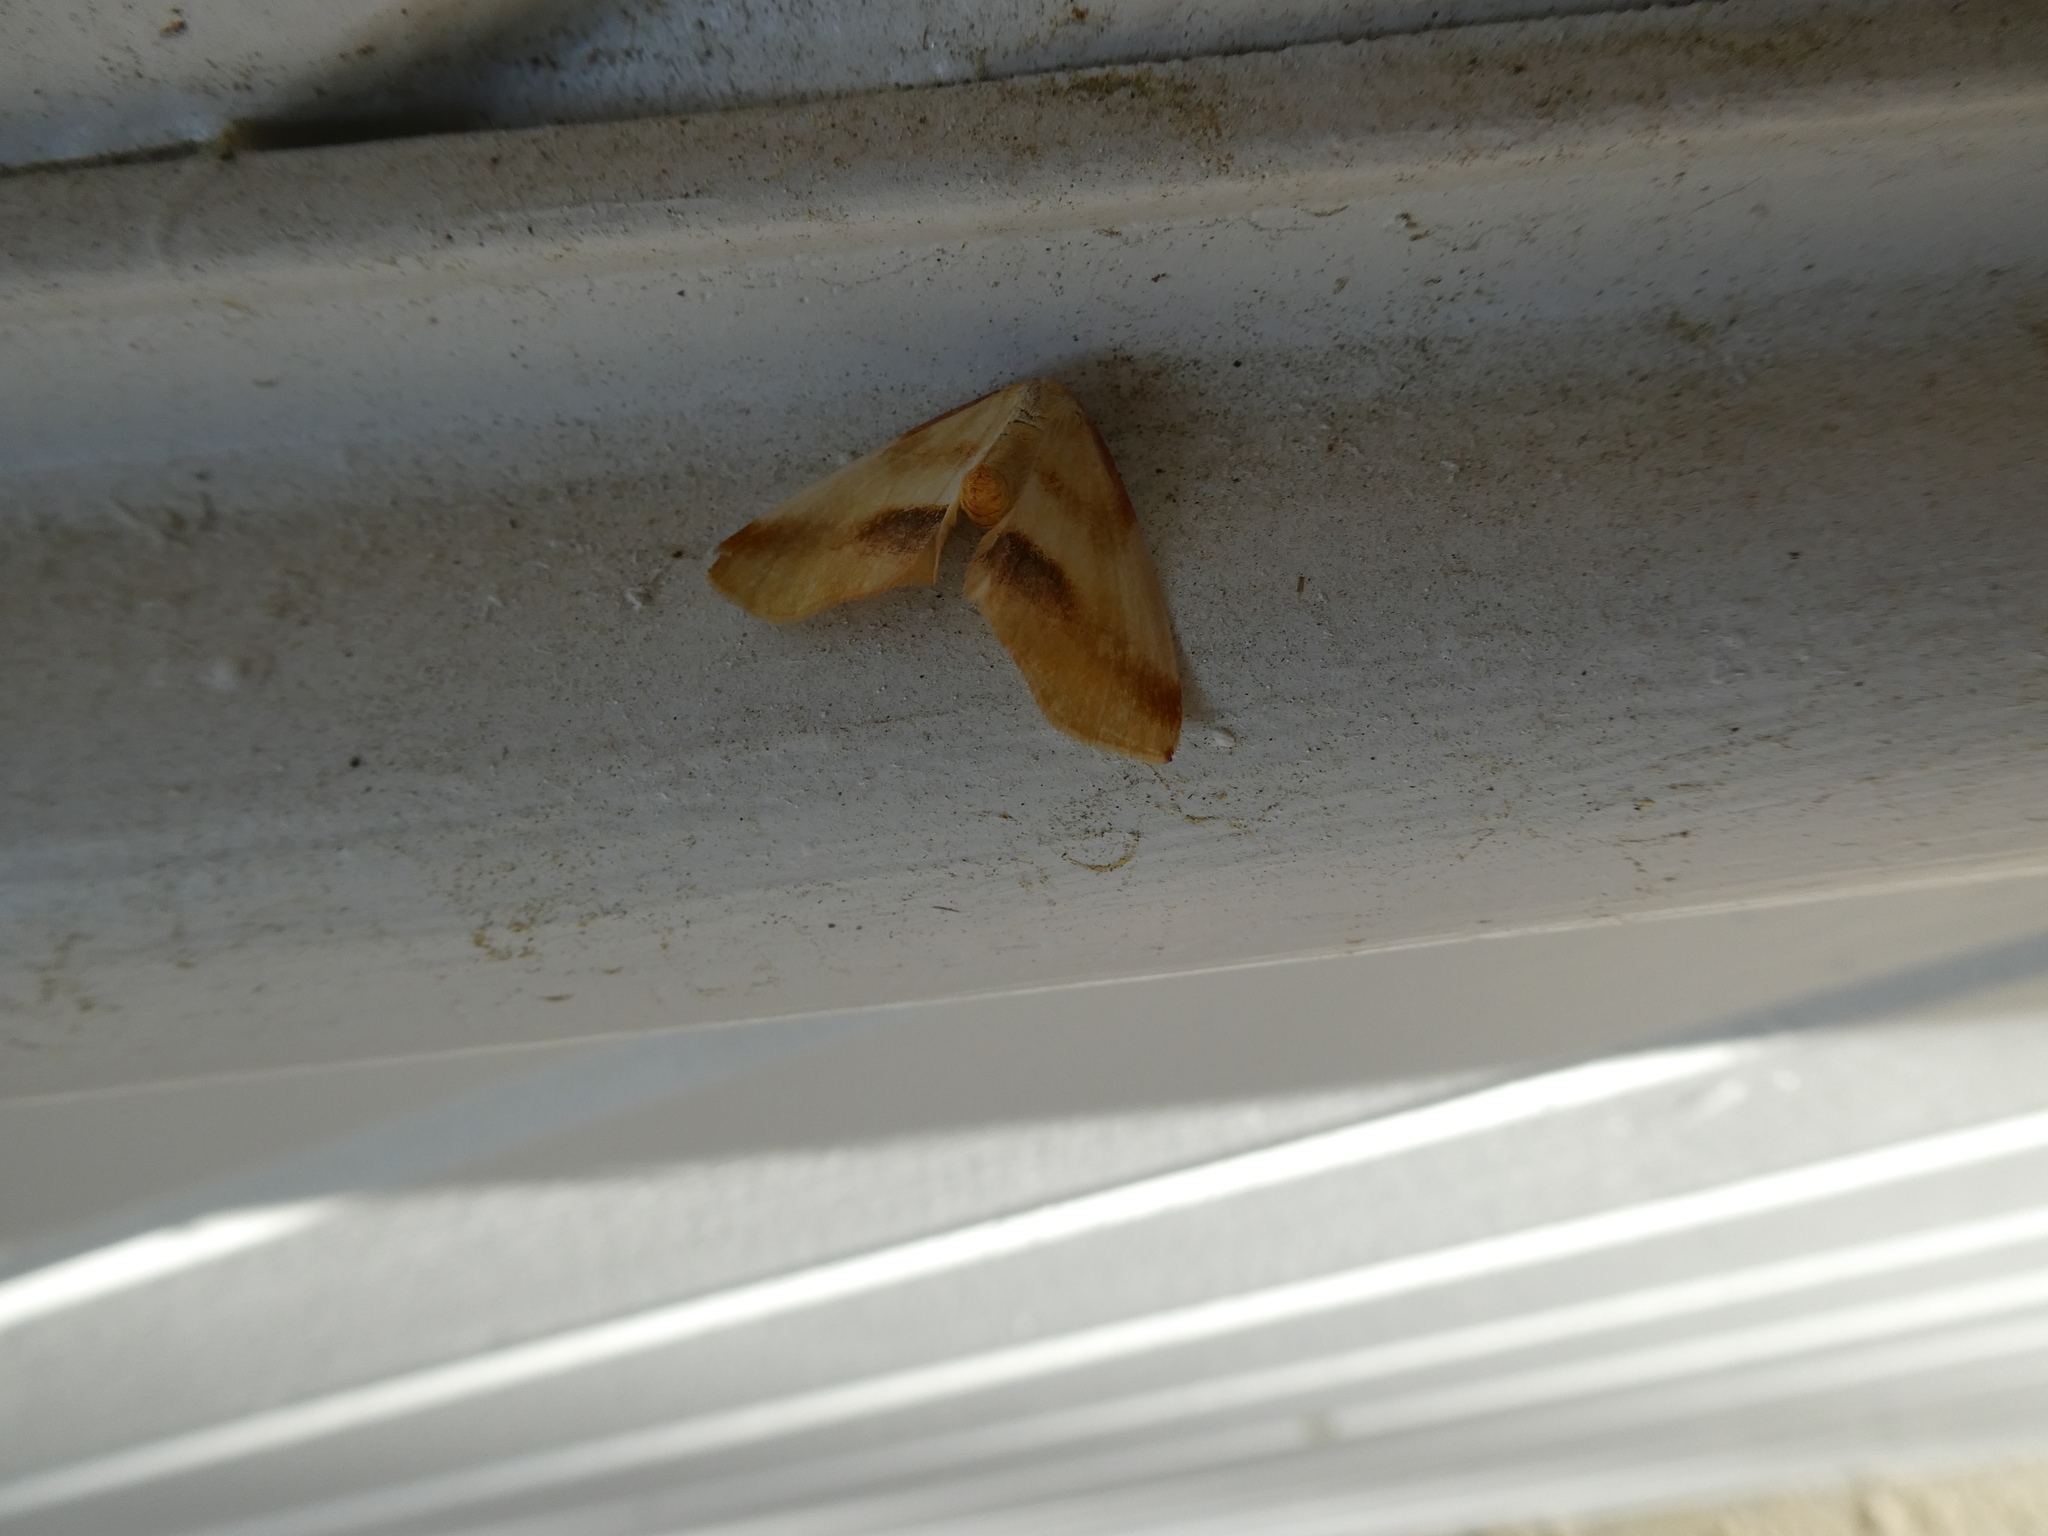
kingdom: Animalia
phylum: Arthropoda
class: Insecta
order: Lepidoptera
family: Geometridae
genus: Plagodis
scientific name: Plagodis serinaria
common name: Lemon plagodis
